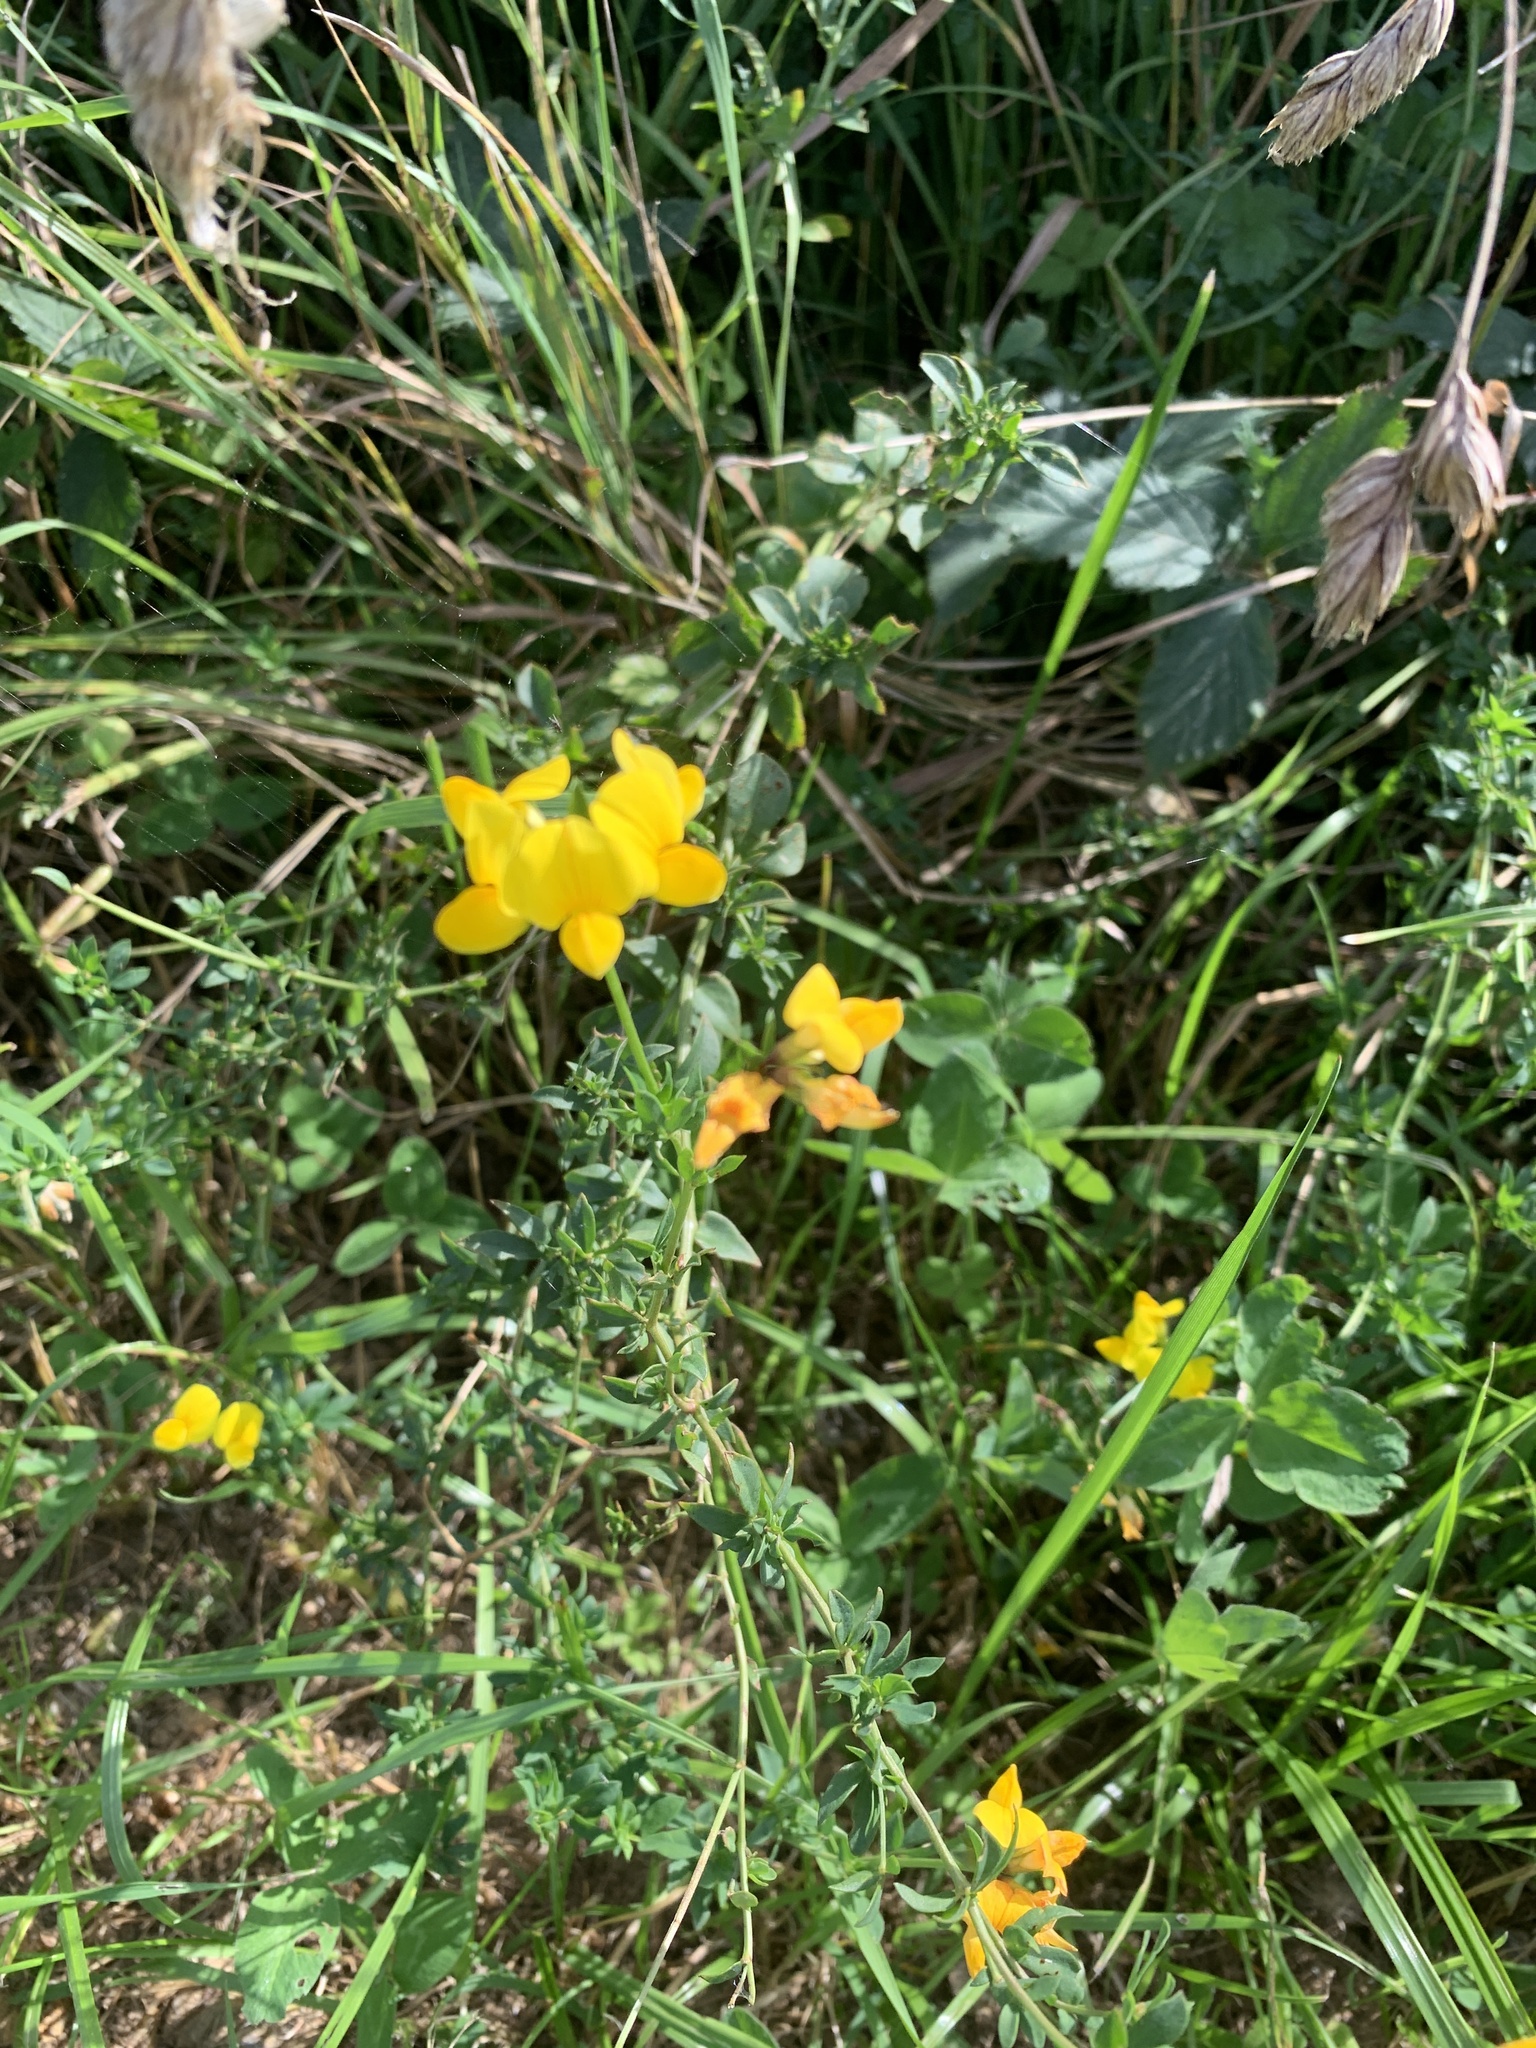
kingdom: Plantae
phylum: Tracheophyta
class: Magnoliopsida
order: Fabales
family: Fabaceae
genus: Lotus
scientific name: Lotus corniculatus
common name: Common bird's-foot-trefoil
